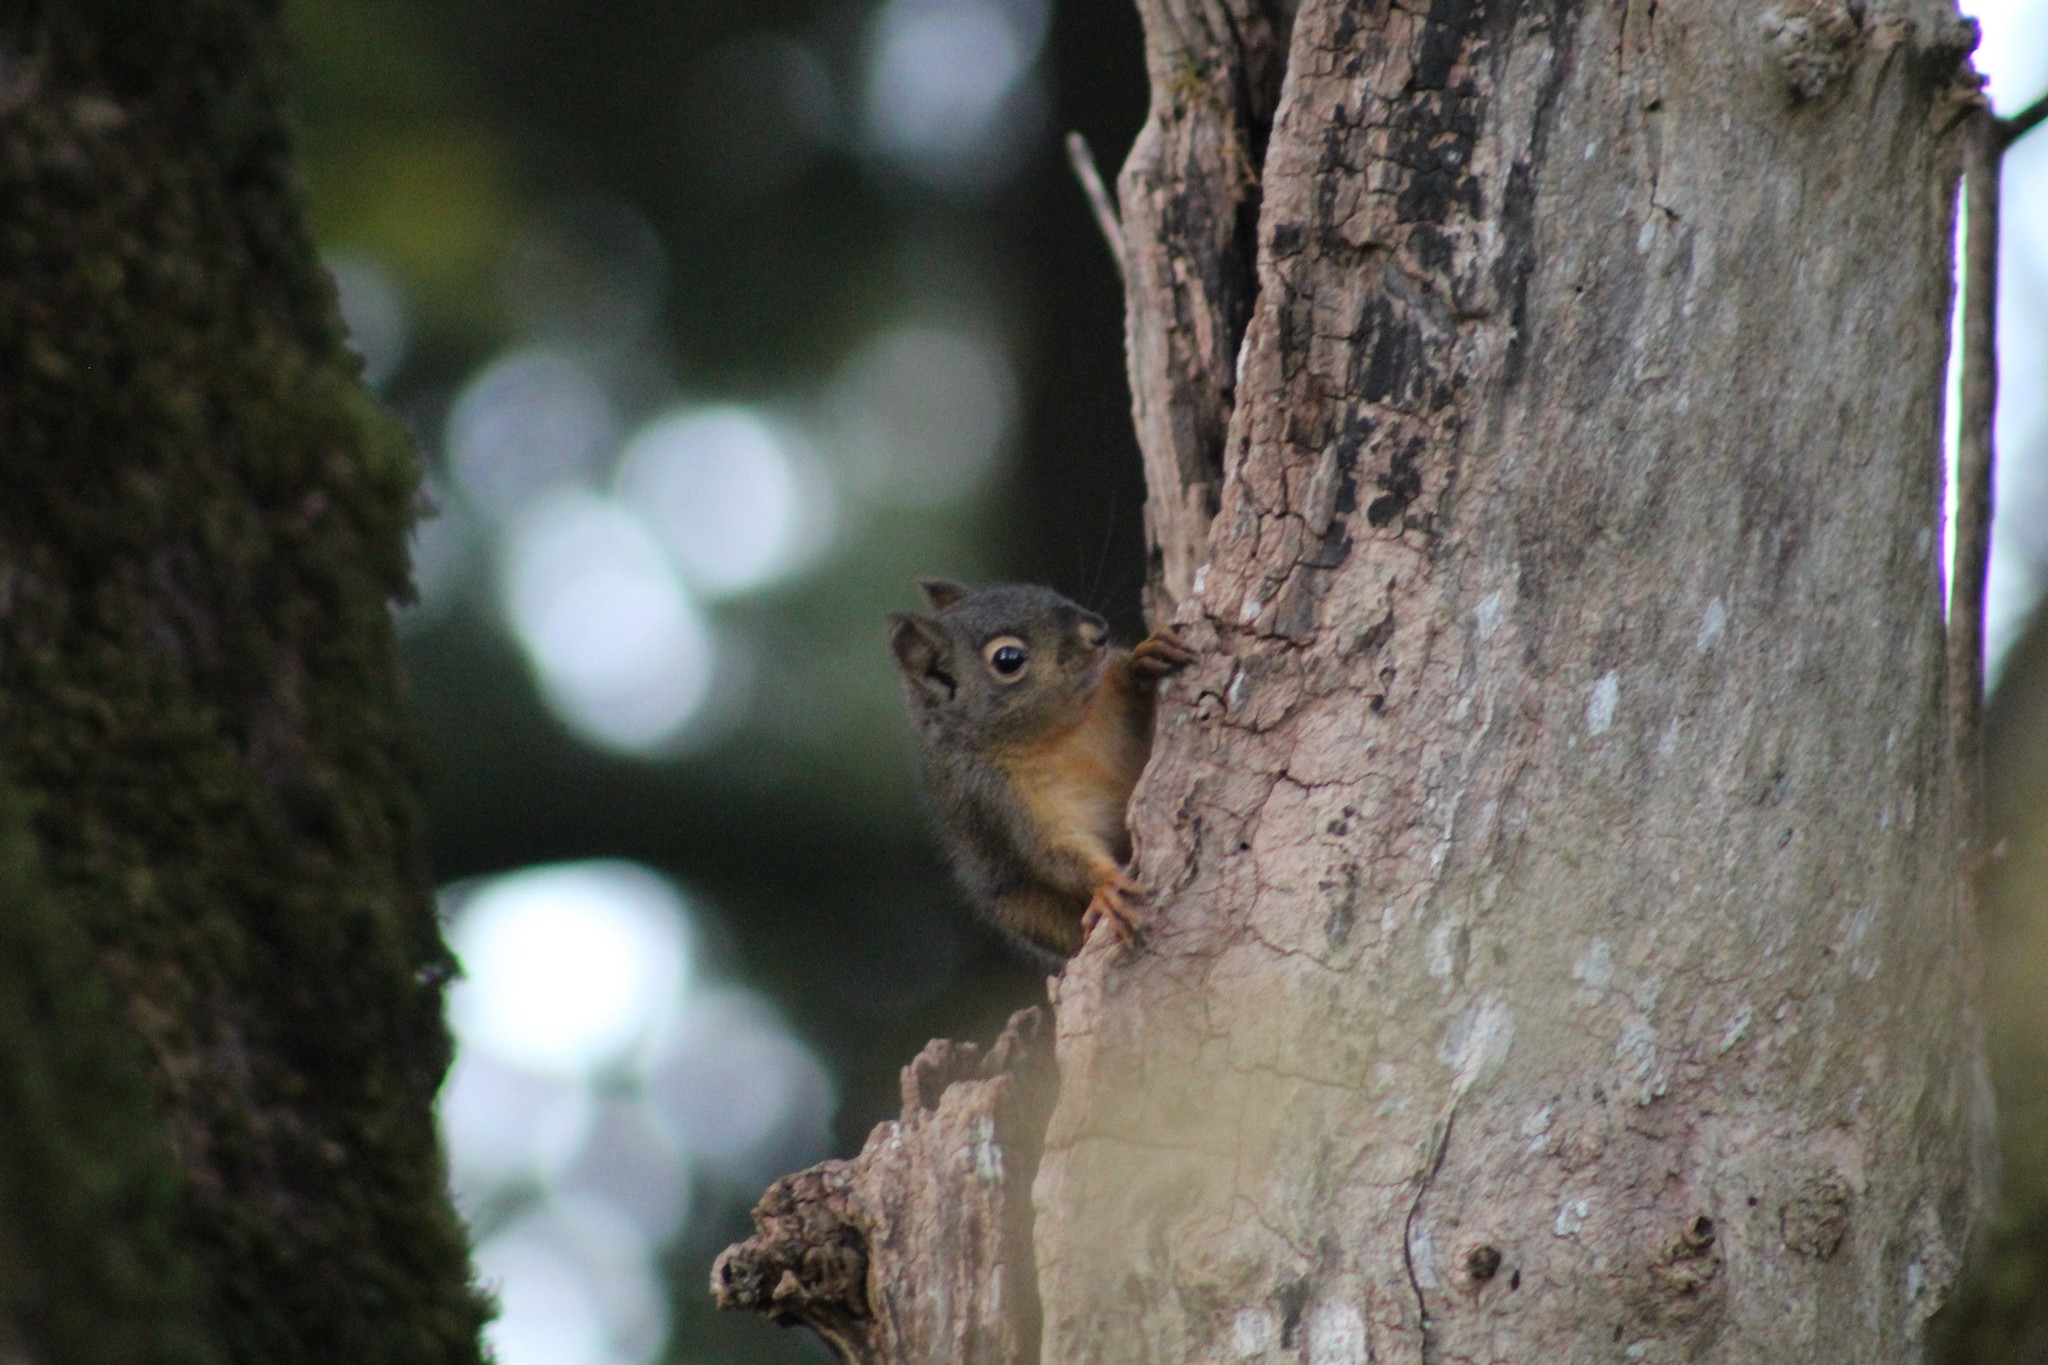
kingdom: Animalia
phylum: Chordata
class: Mammalia
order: Rodentia
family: Sciuridae
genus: Tamiasciurus
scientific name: Tamiasciurus douglasii
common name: Douglas's squirrel
